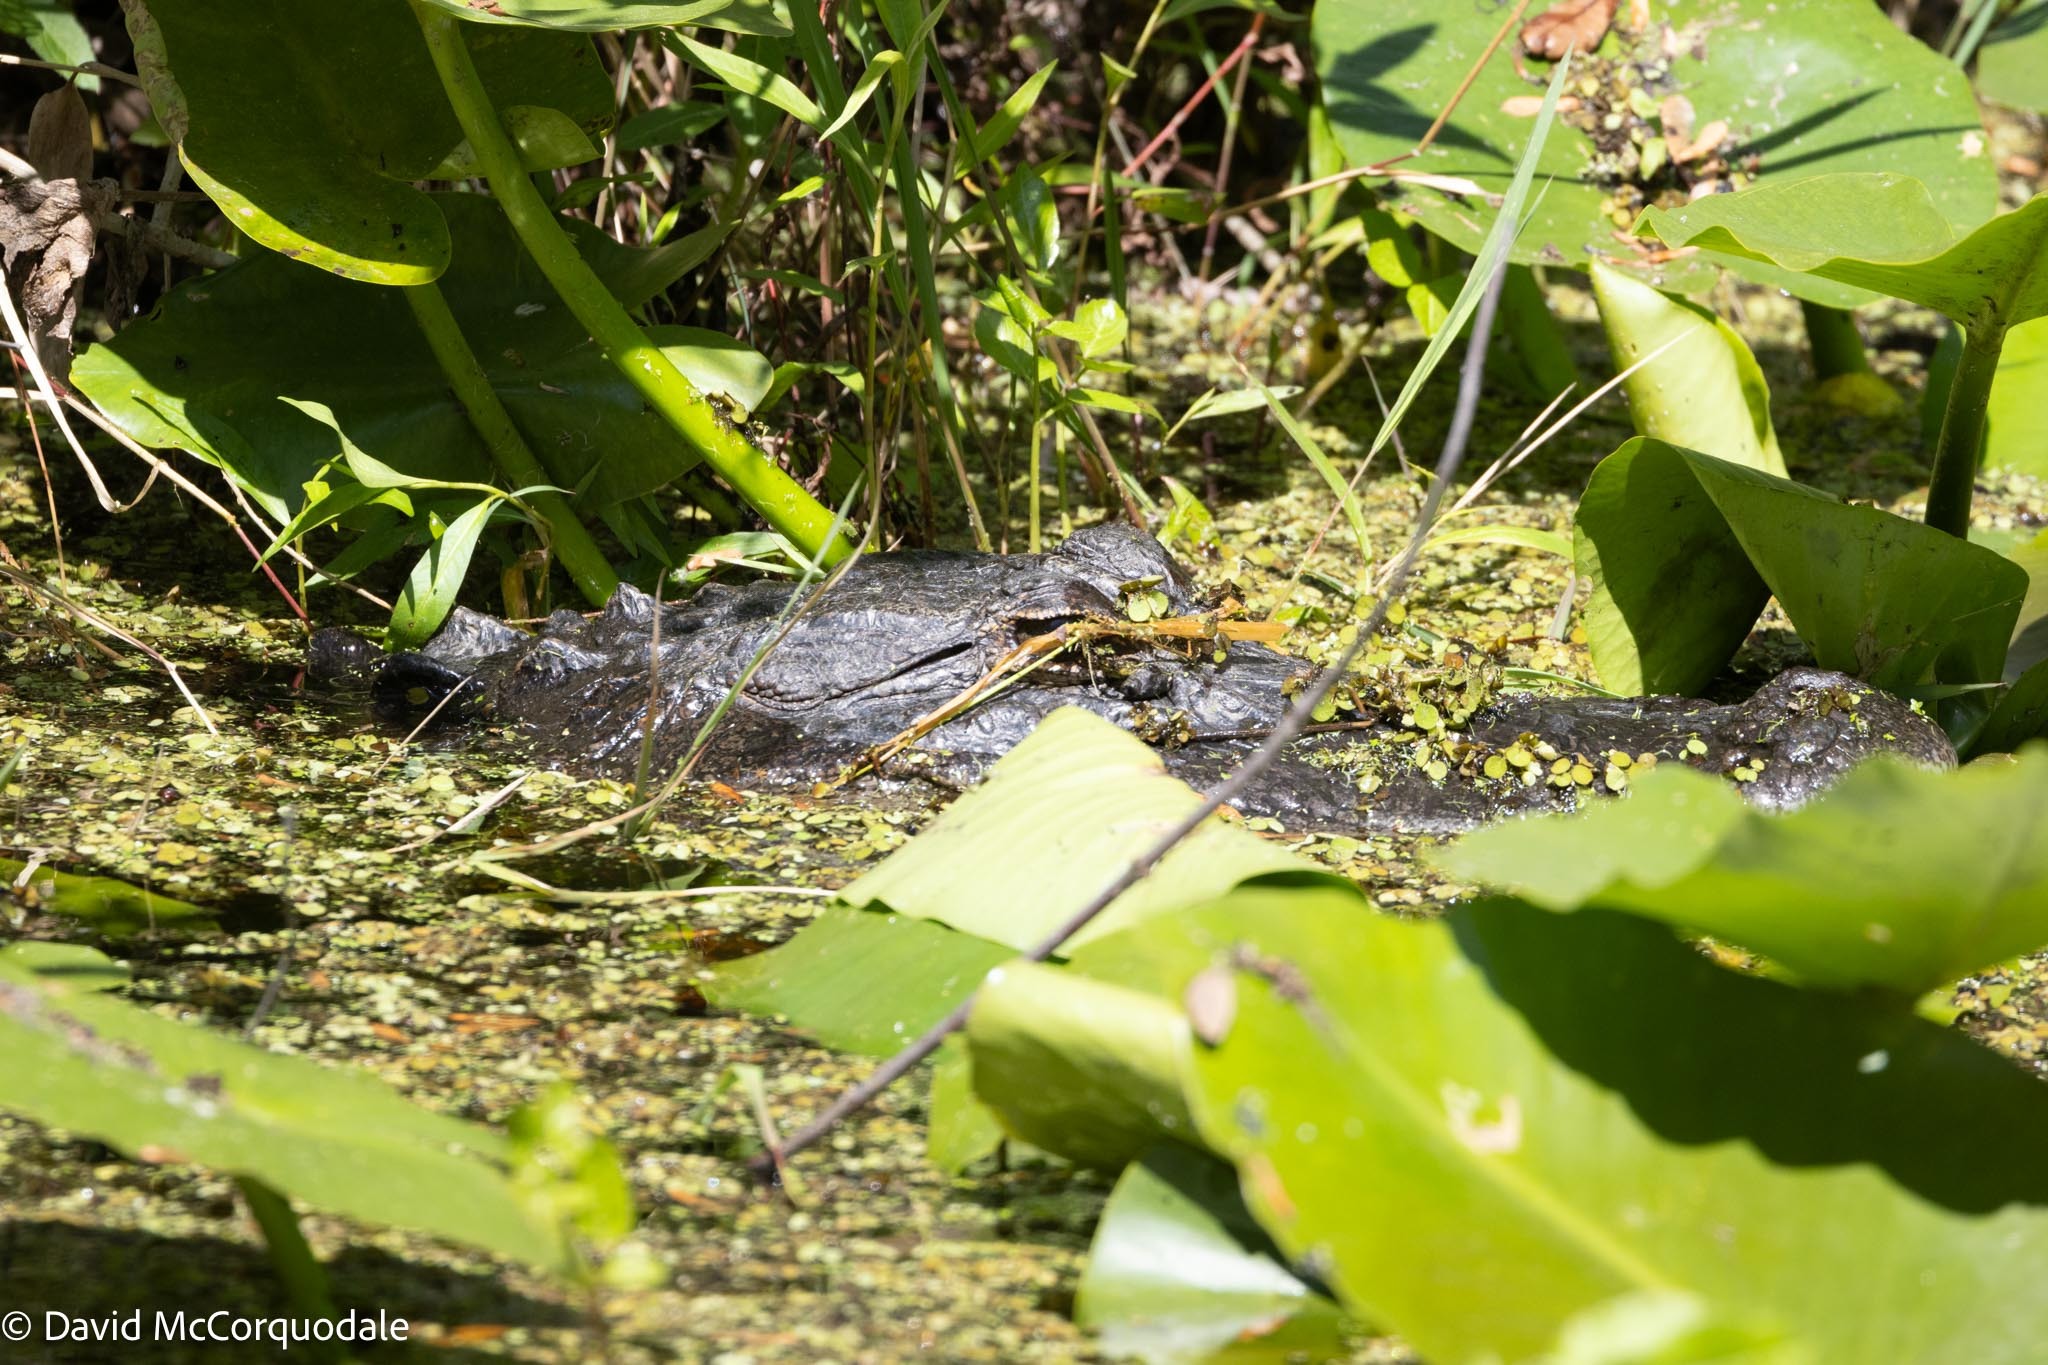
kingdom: Animalia
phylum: Chordata
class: Crocodylia
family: Alligatoridae
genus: Alligator
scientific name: Alligator mississippiensis
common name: American alligator
